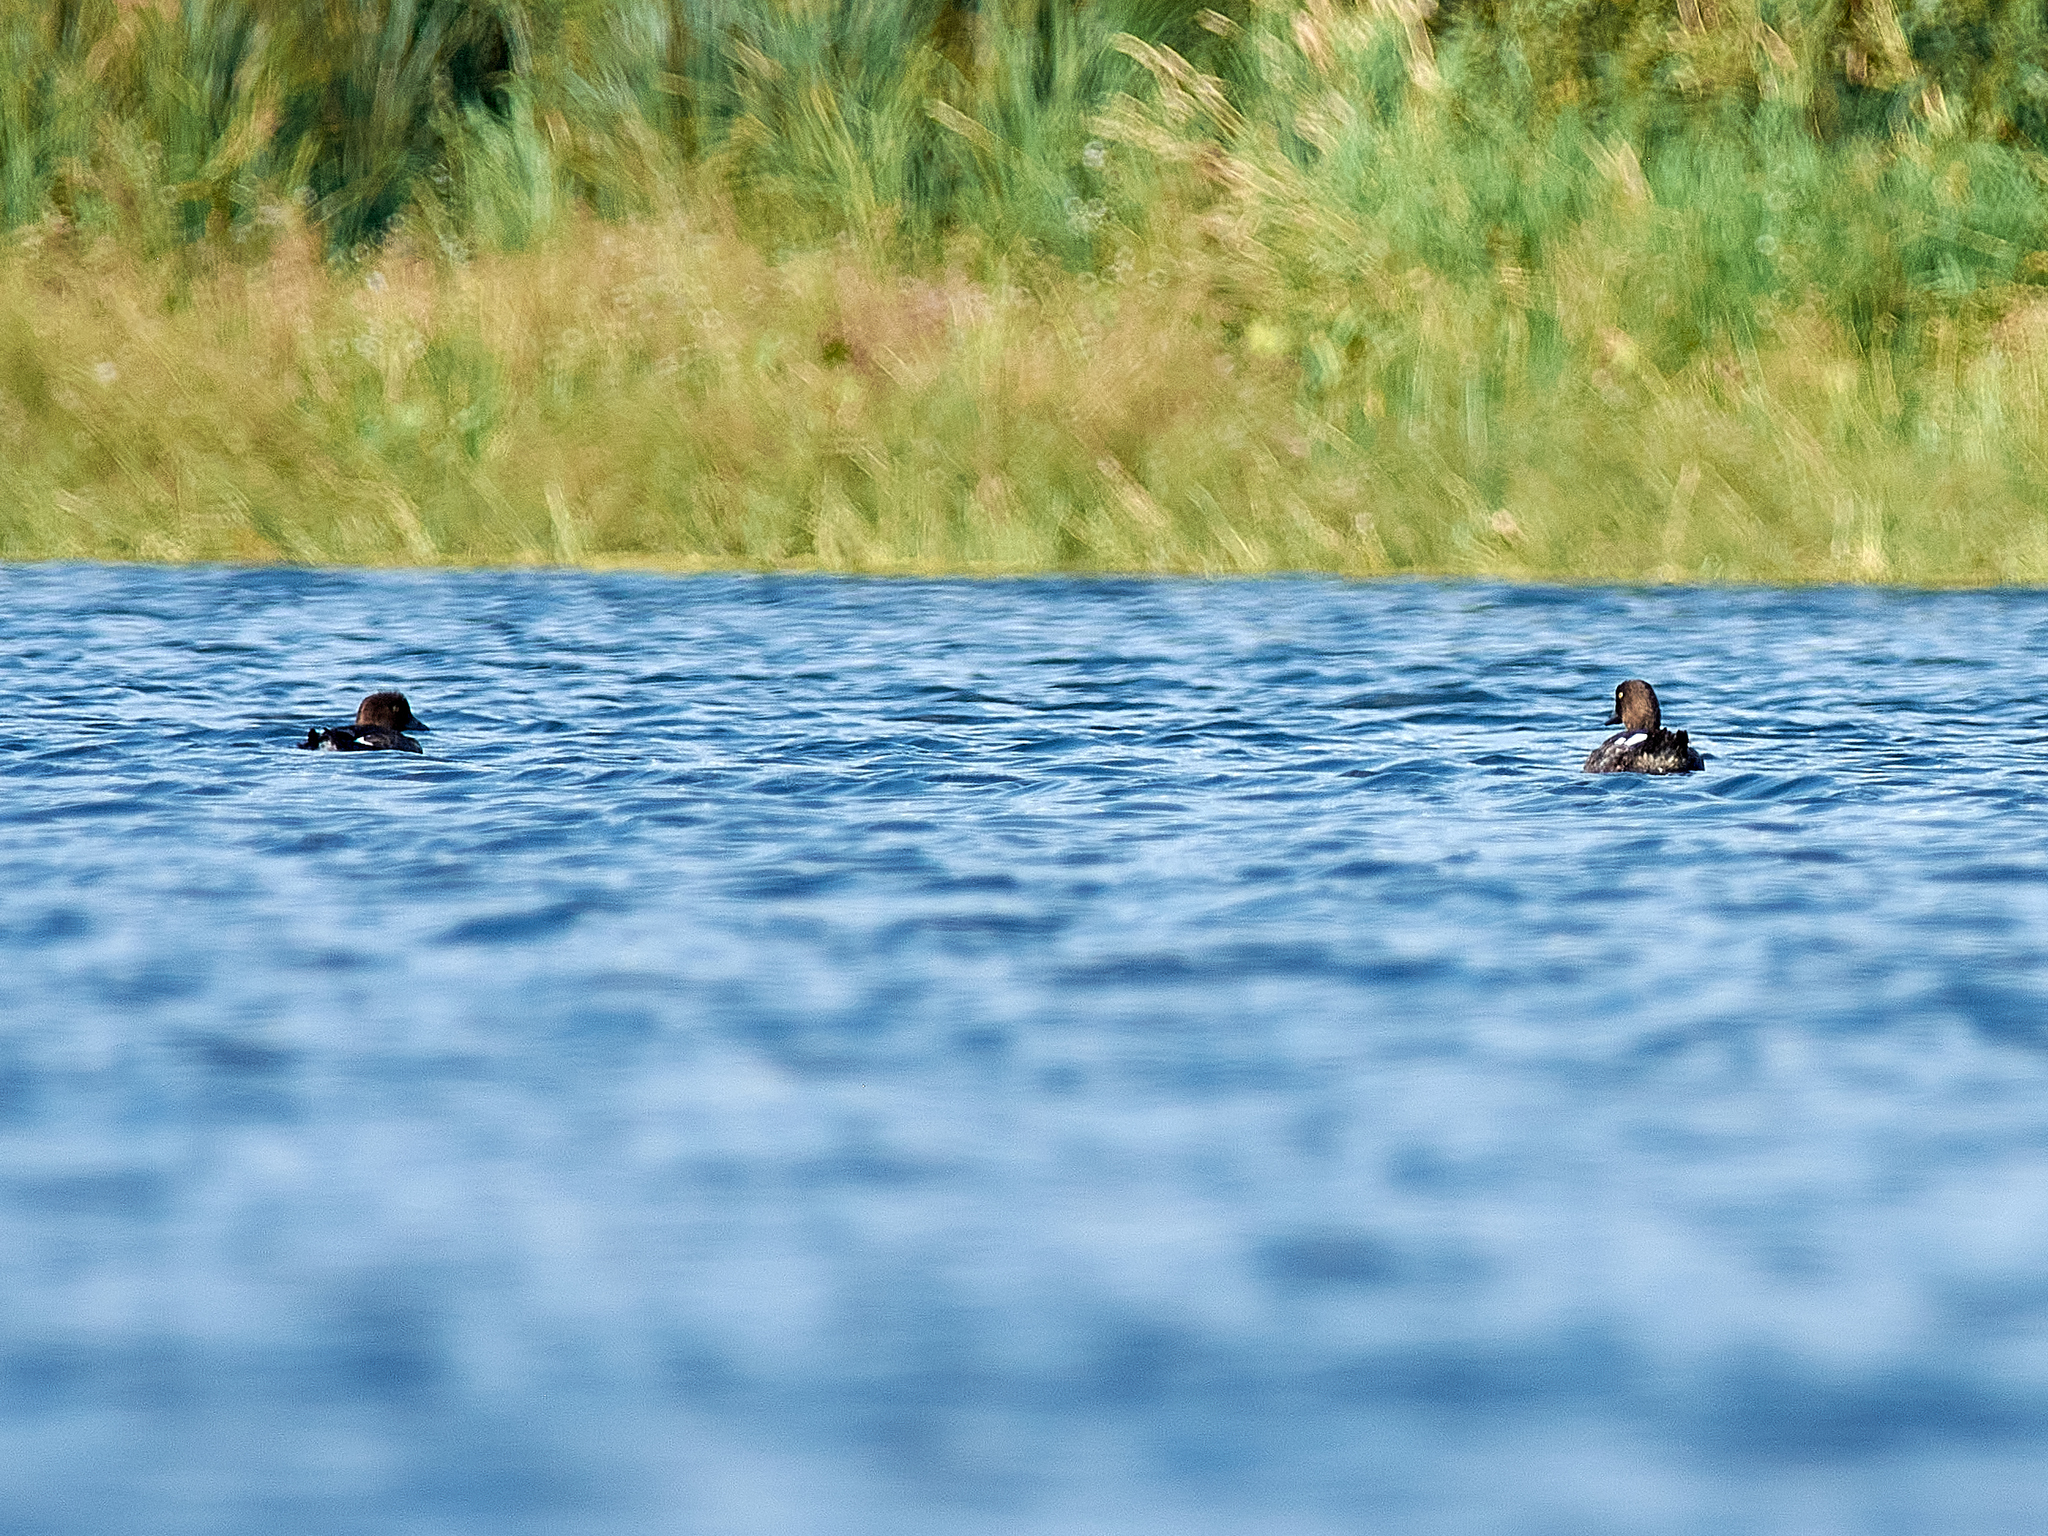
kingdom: Animalia
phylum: Chordata
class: Aves
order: Anseriformes
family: Anatidae
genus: Bucephala
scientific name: Bucephala clangula
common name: Common goldeneye
